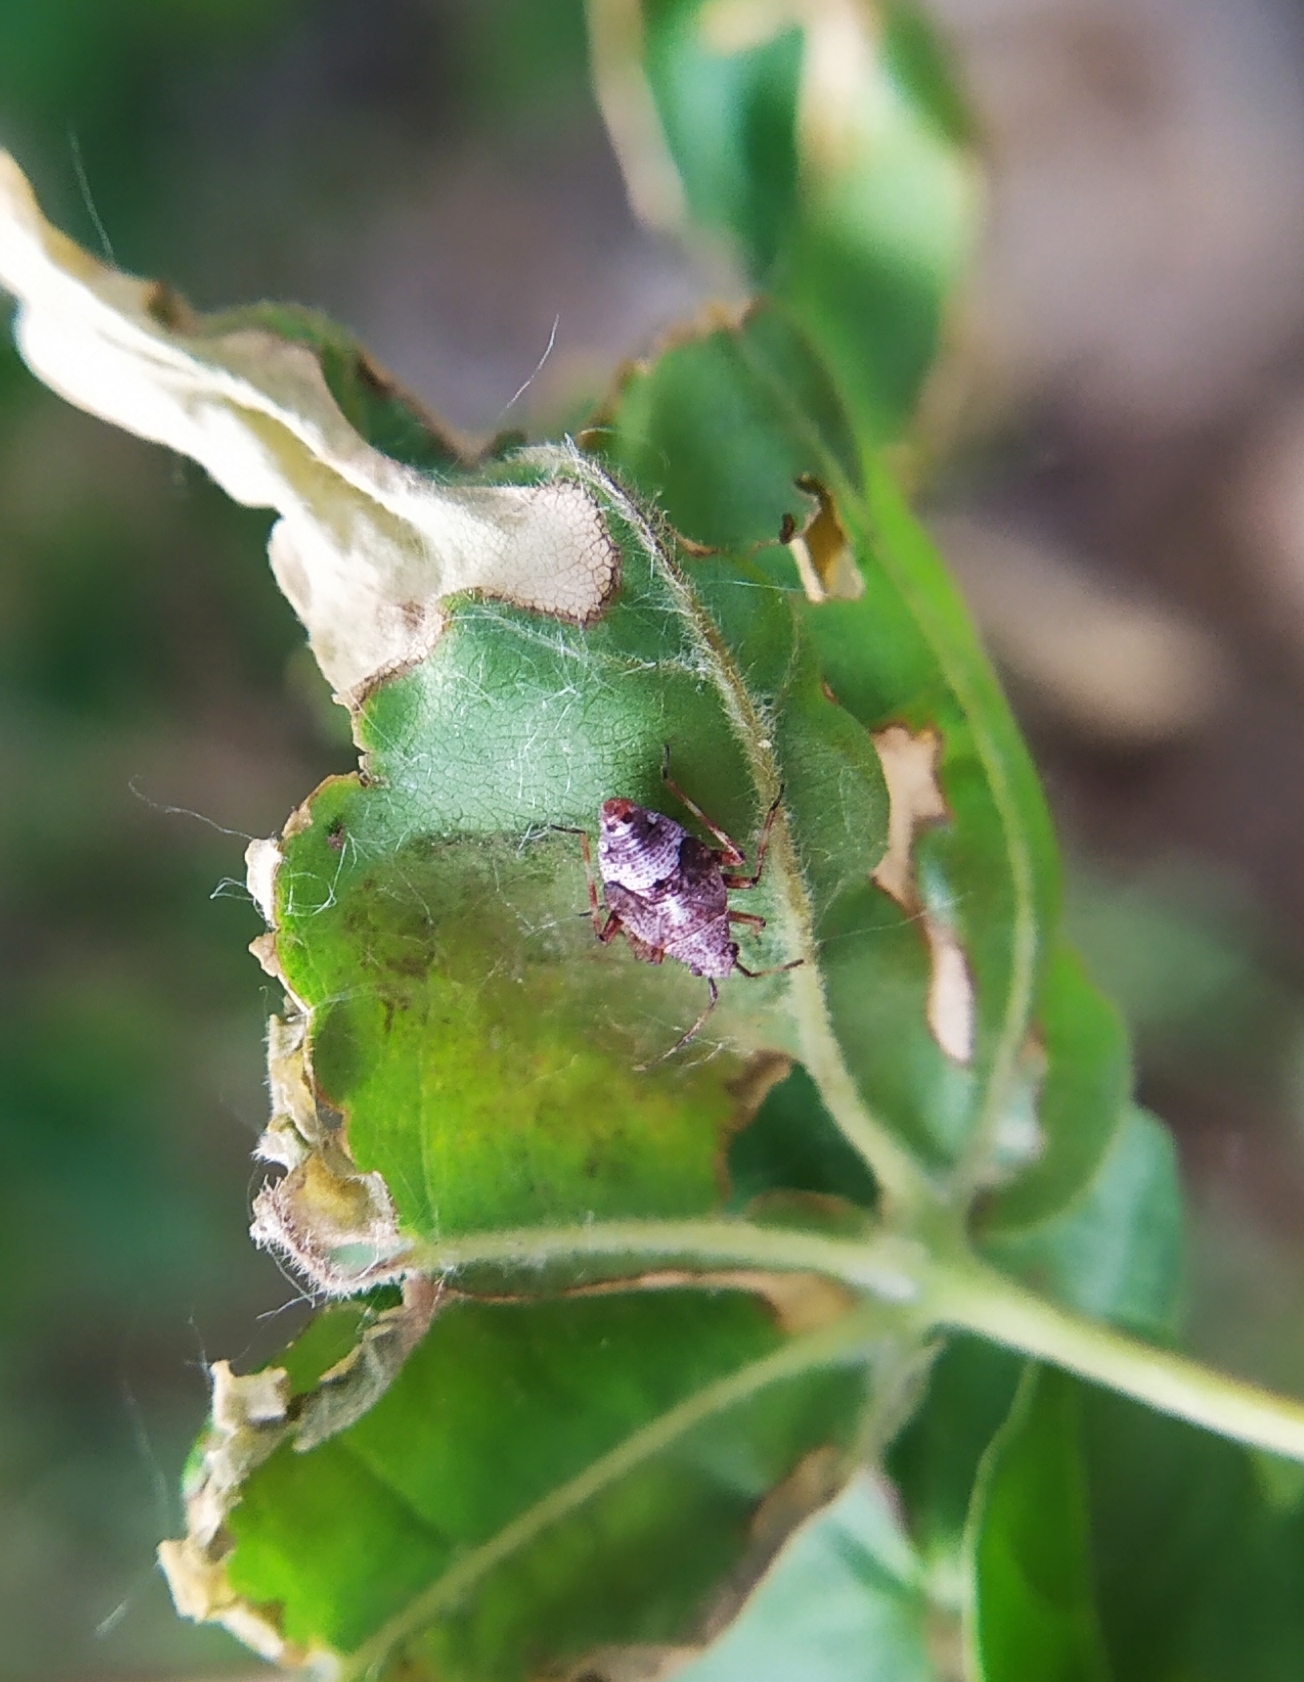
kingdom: Animalia
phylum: Arthropoda
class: Insecta
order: Hemiptera
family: Miridae
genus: Deraeocoris
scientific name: Deraeocoris flavilinea
